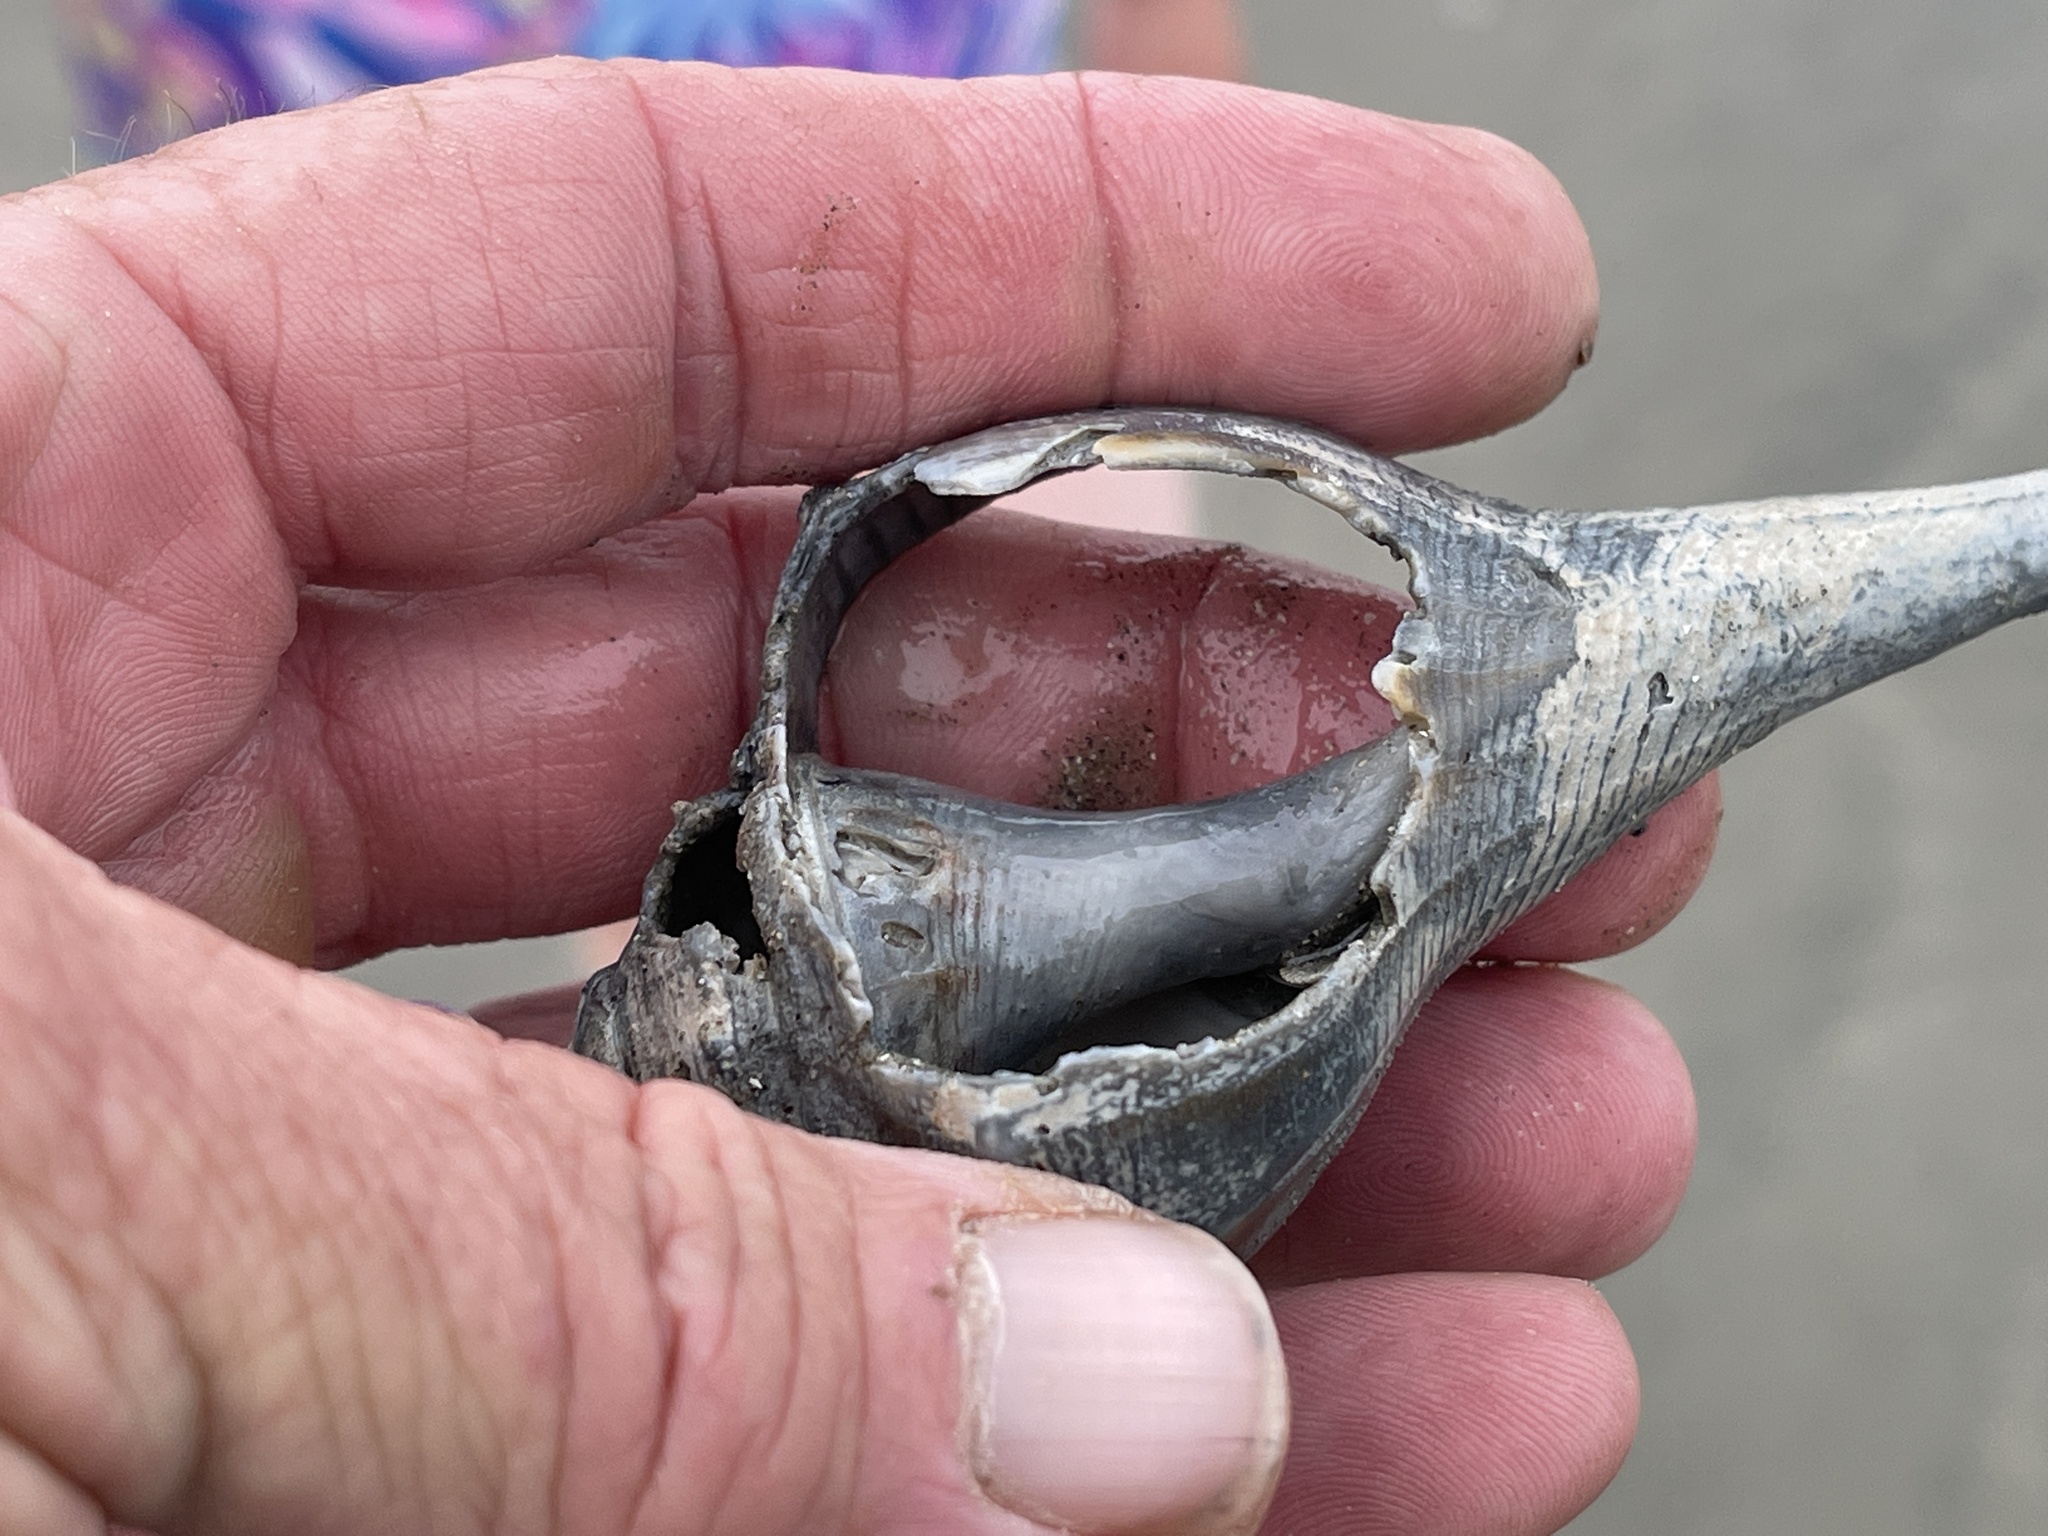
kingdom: Animalia
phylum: Mollusca
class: Gastropoda
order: Neogastropoda
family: Busyconidae
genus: Sinistrofulgur
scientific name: Sinistrofulgur pulleyi
